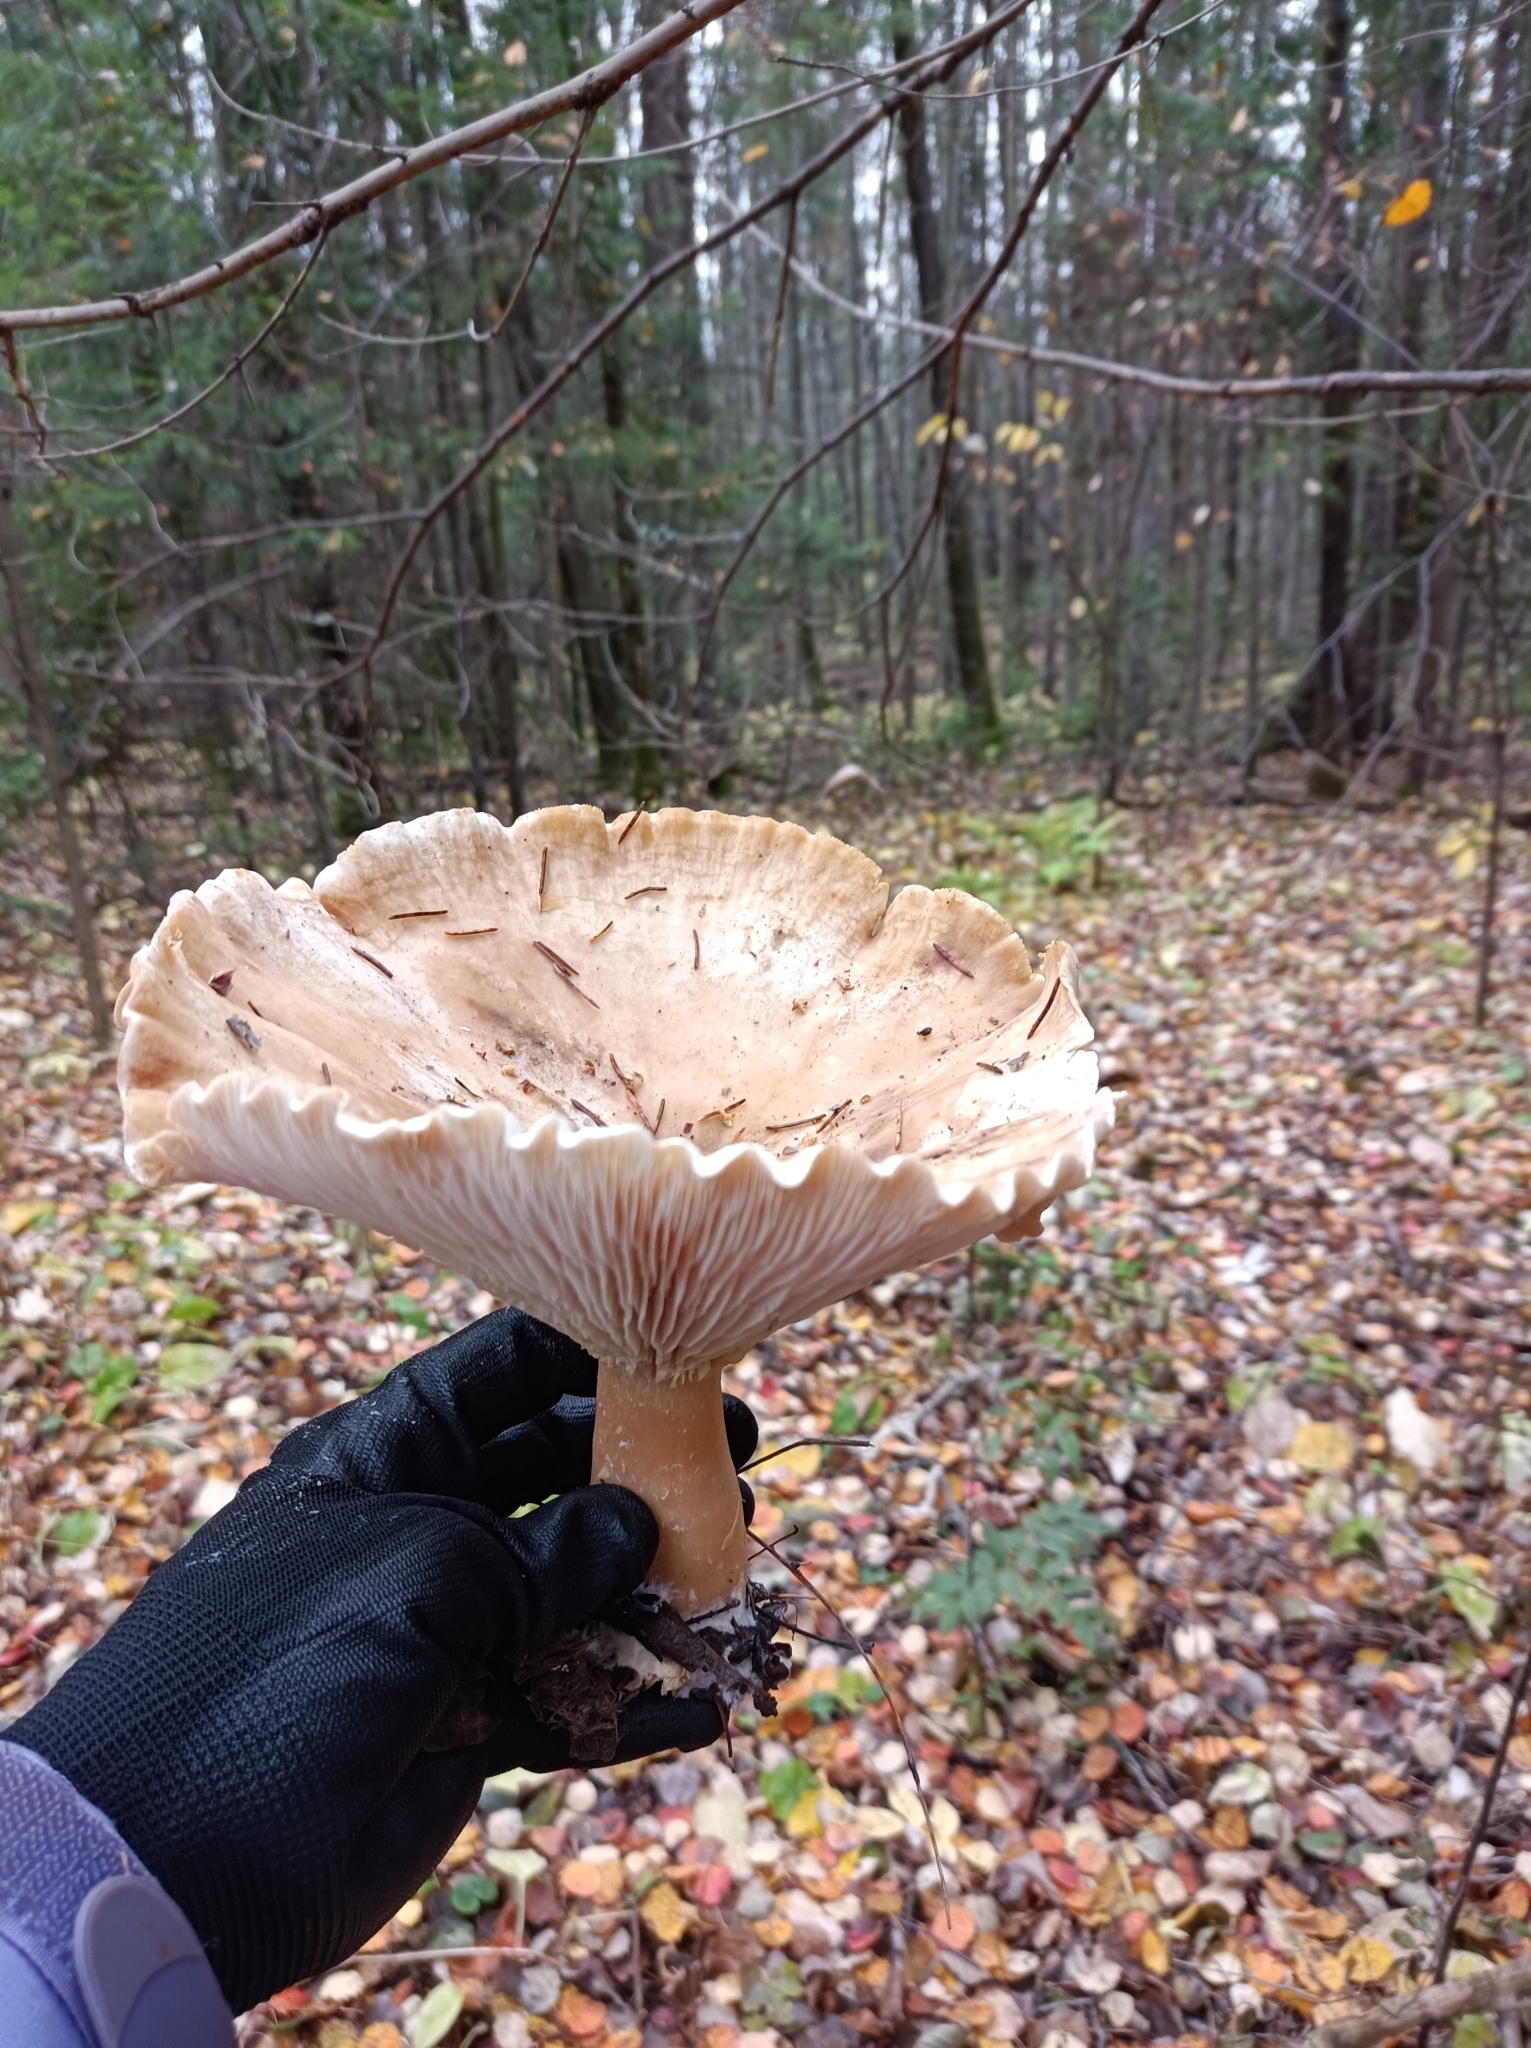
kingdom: Fungi
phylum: Basidiomycota
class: Agaricomycetes
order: Agaricales
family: Tricholomataceae
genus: Infundibulicybe
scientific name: Infundibulicybe geotropa
